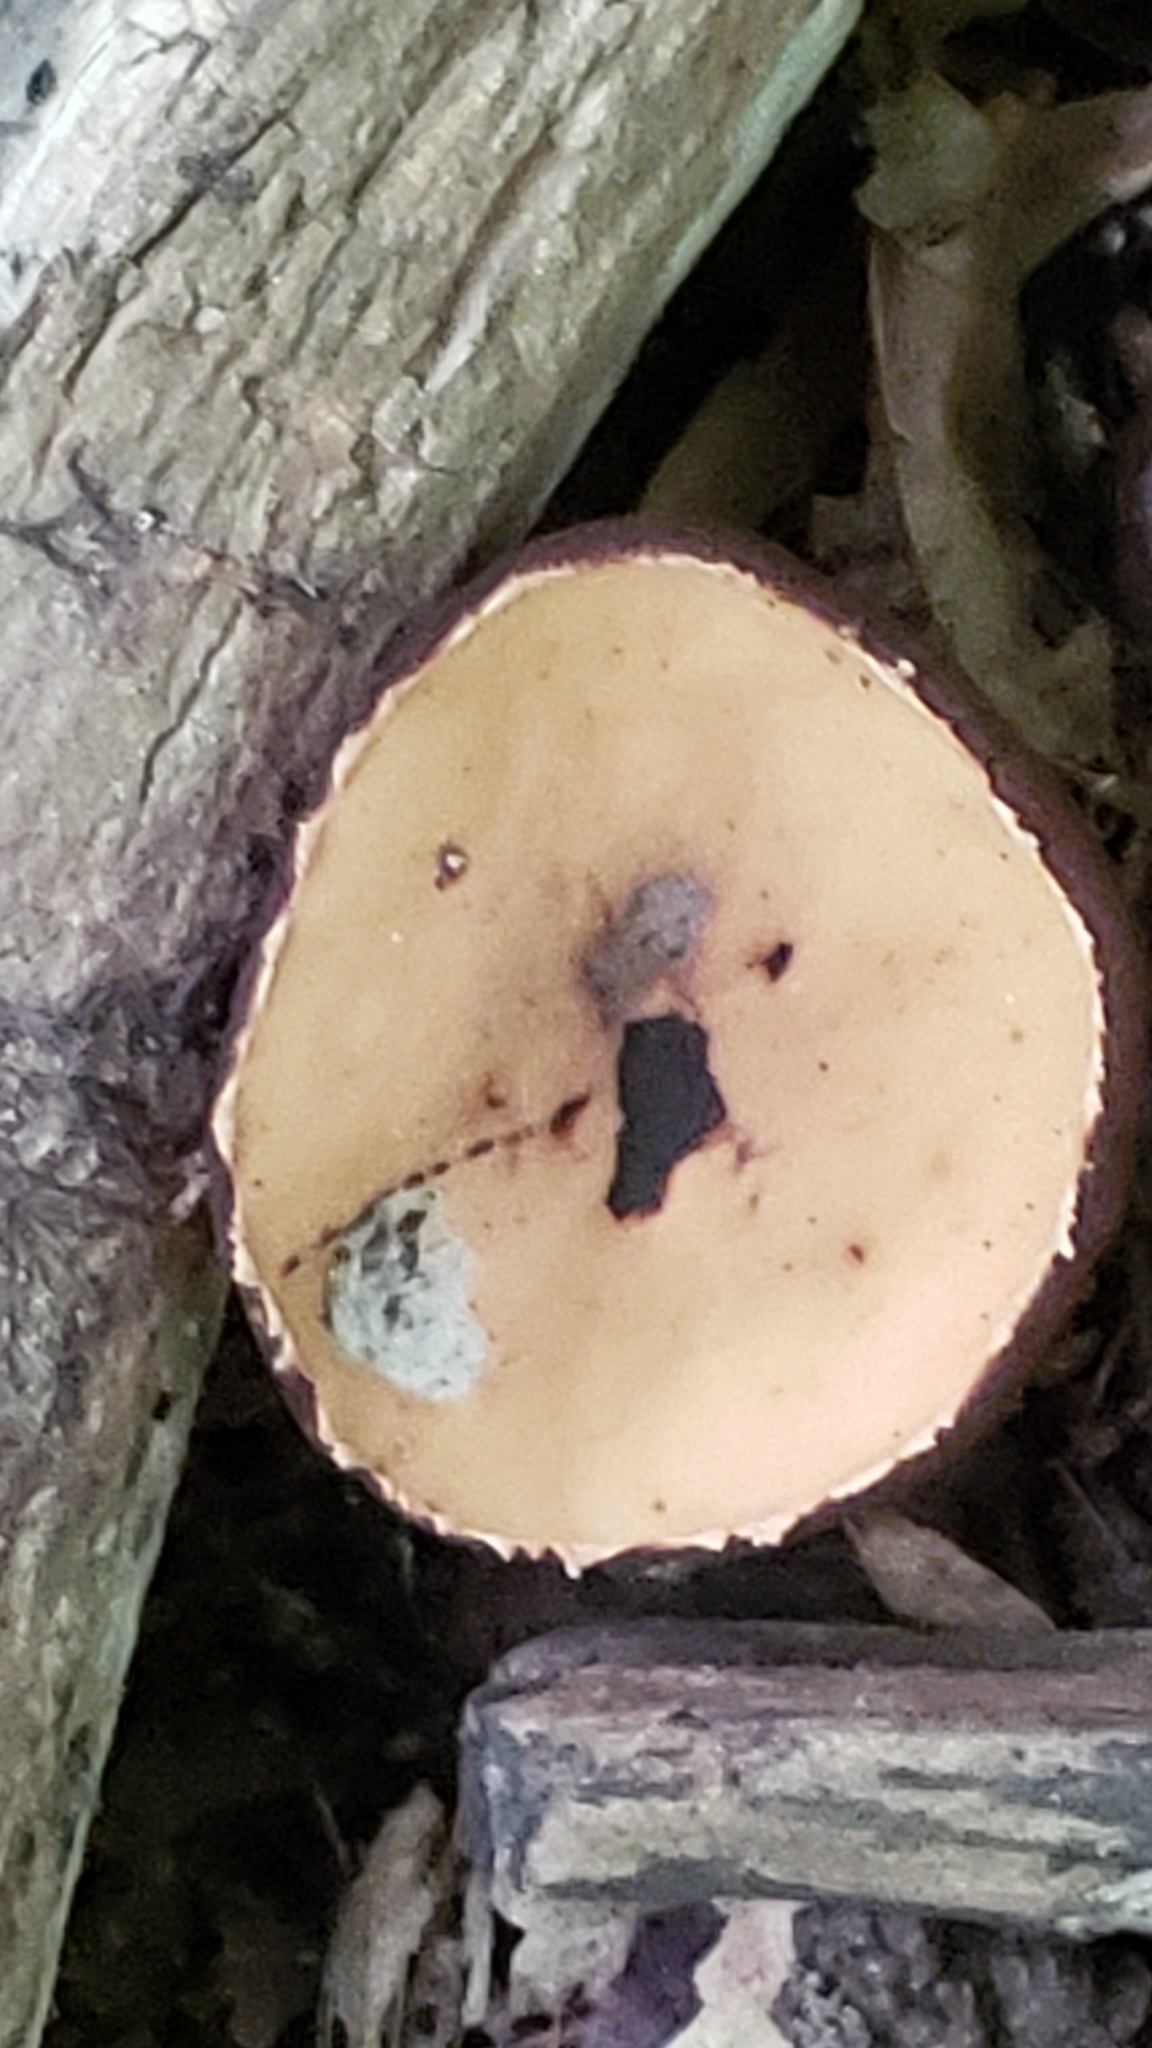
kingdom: Fungi
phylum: Ascomycota
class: Pezizomycetes
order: Pezizales
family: Sarcosomataceae
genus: Galiella
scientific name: Galiella rufa
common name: Hairy rubber cup
